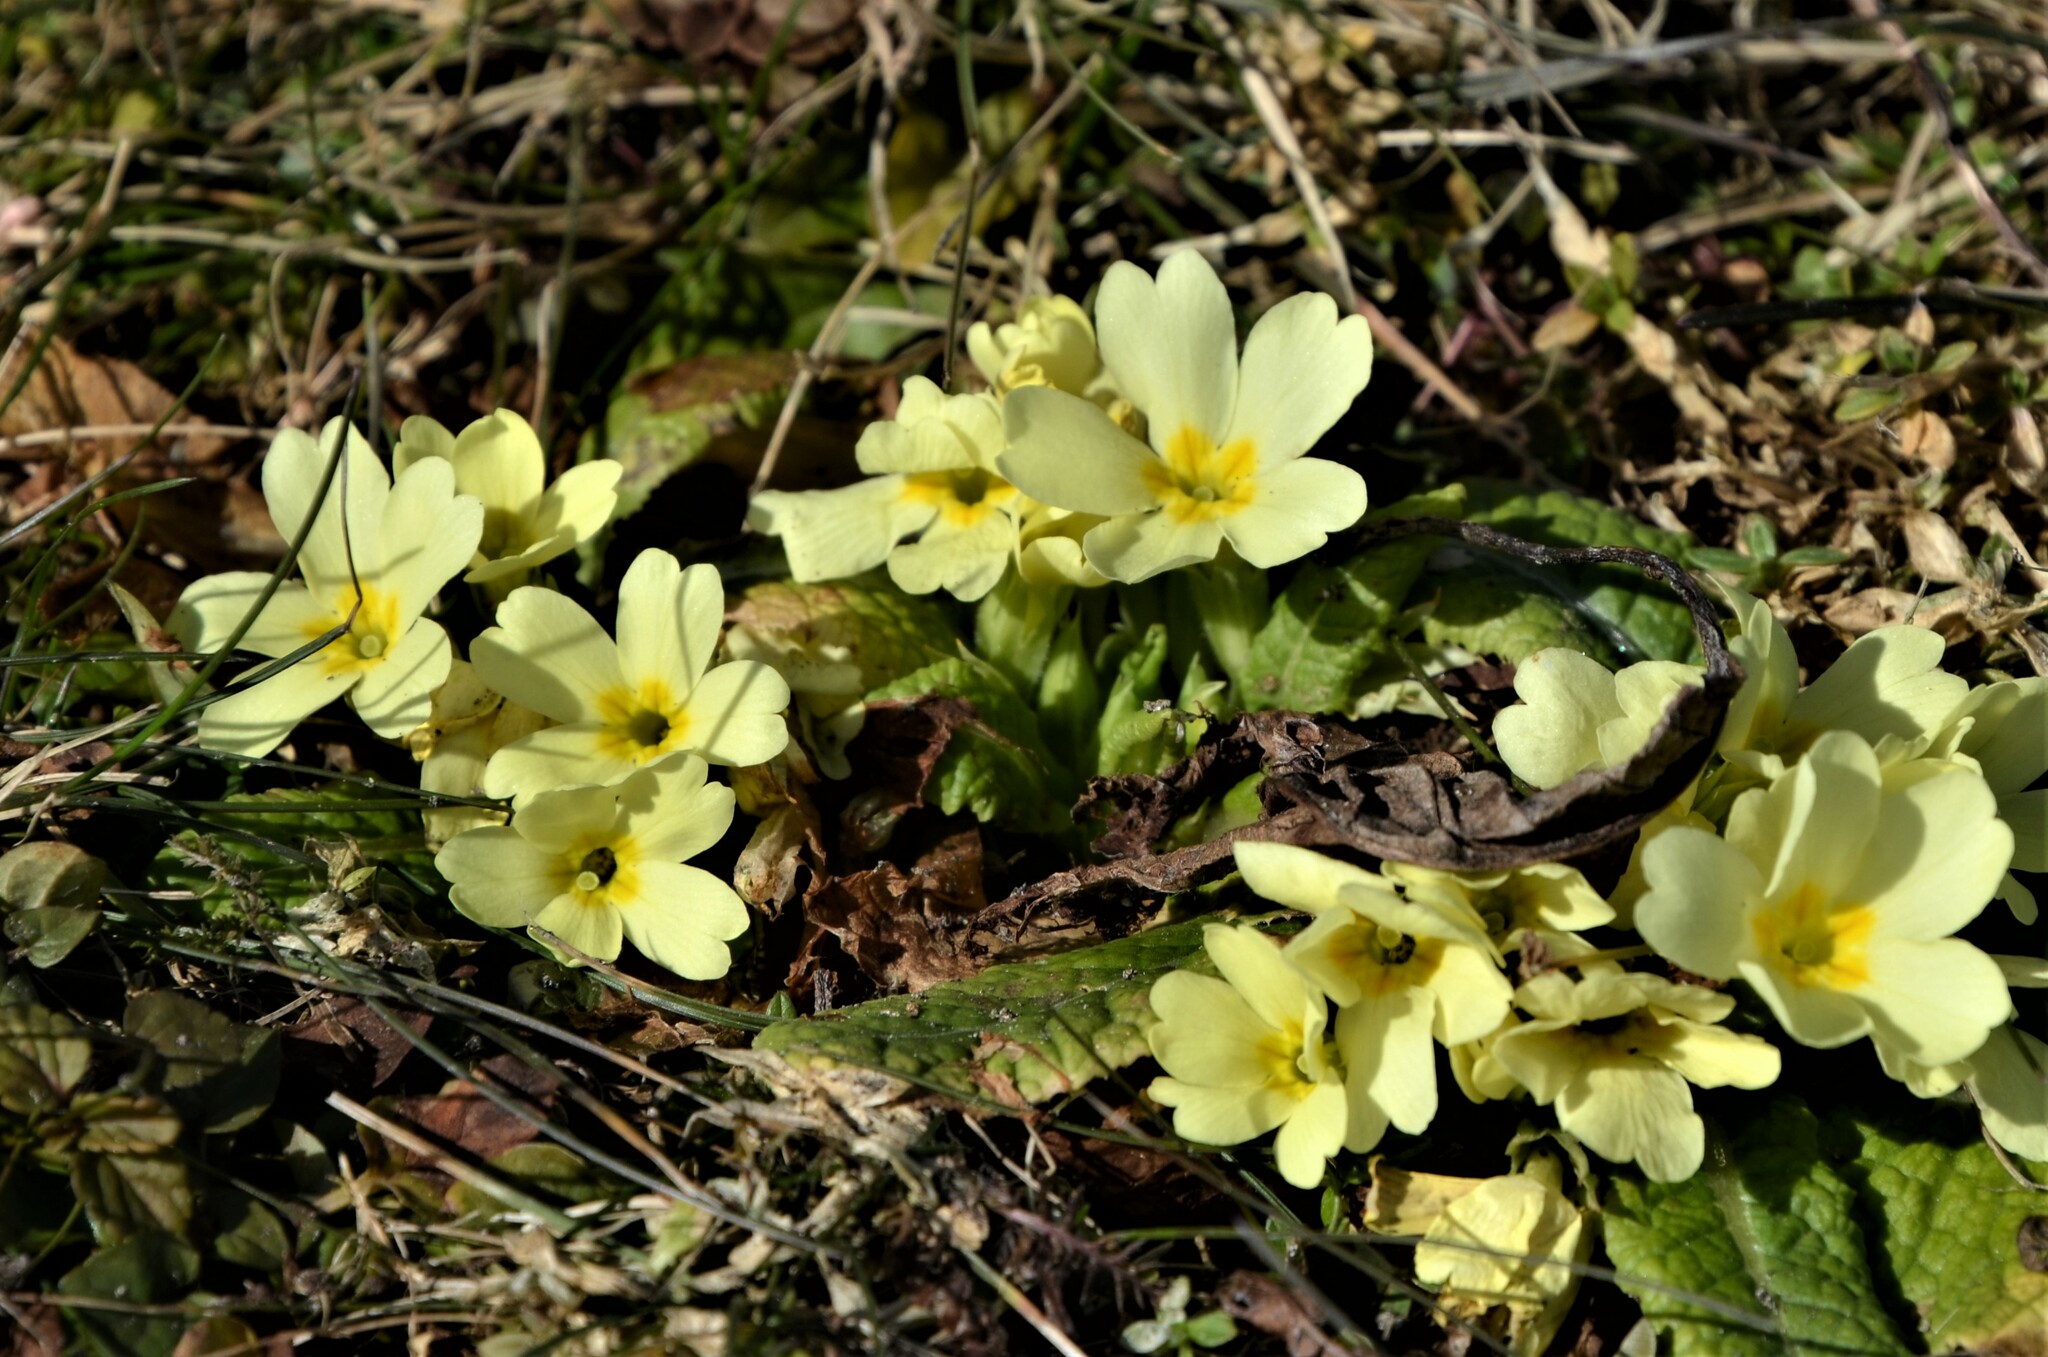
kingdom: Plantae
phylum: Tracheophyta
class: Magnoliopsida
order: Ericales
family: Primulaceae
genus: Primula
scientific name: Primula vulgaris
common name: Primrose
